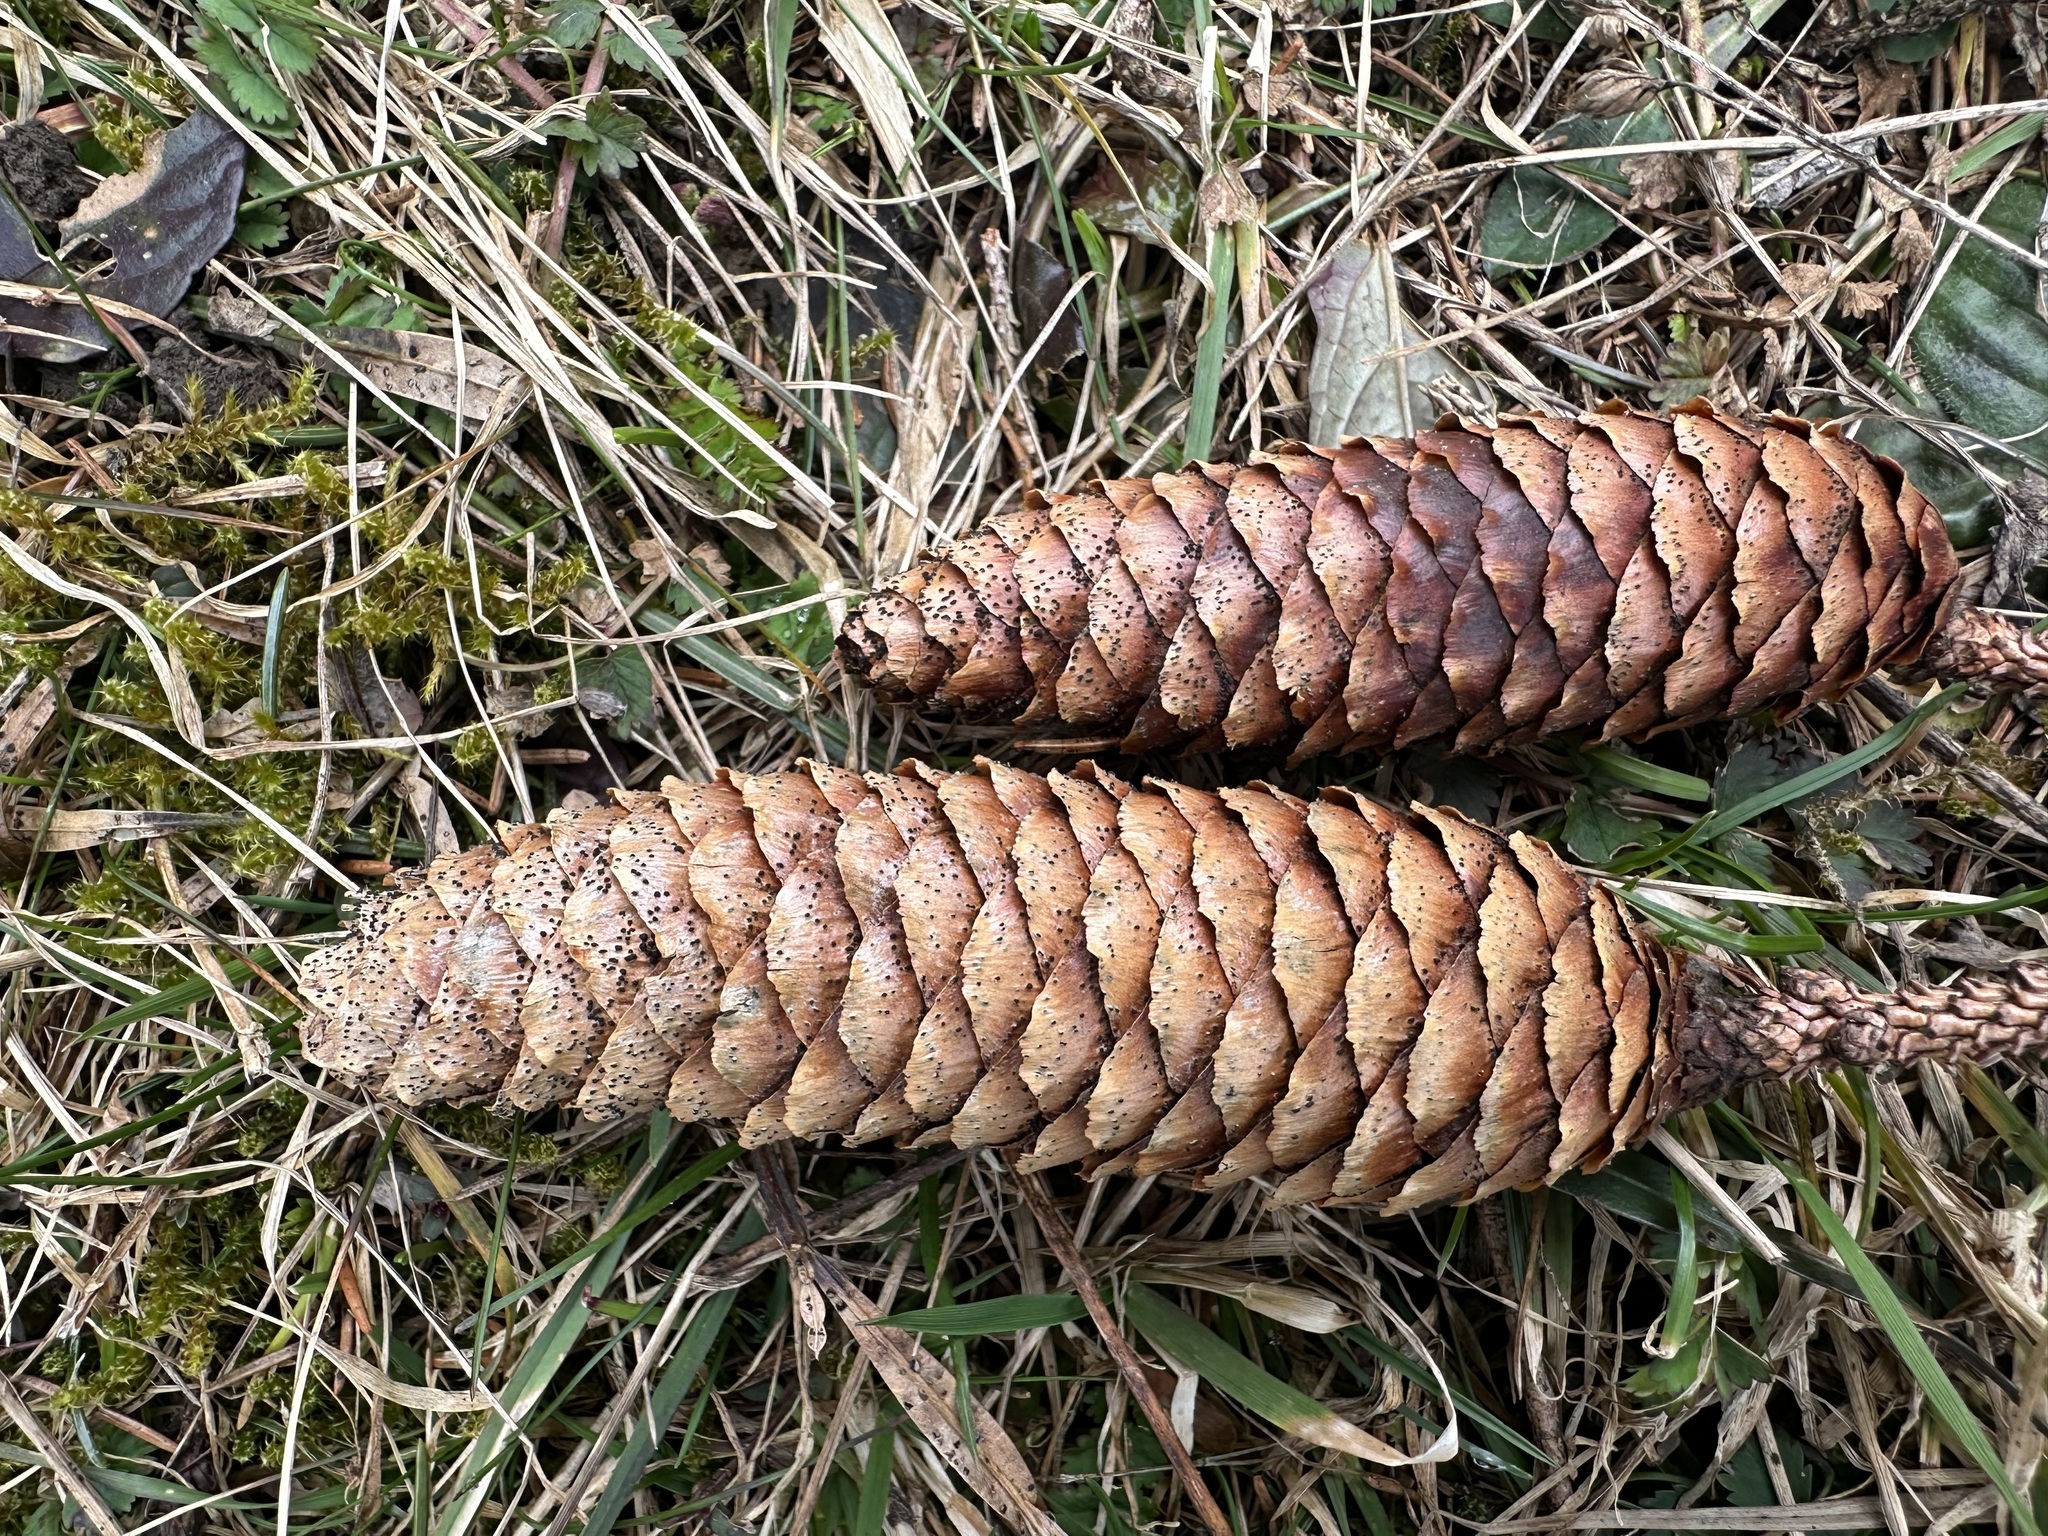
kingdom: Fungi
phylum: Ascomycota
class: Dothideomycetes
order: Pleosporales
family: Melanommataceae
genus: Phragmotrichum
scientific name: Phragmotrichum chailletii
